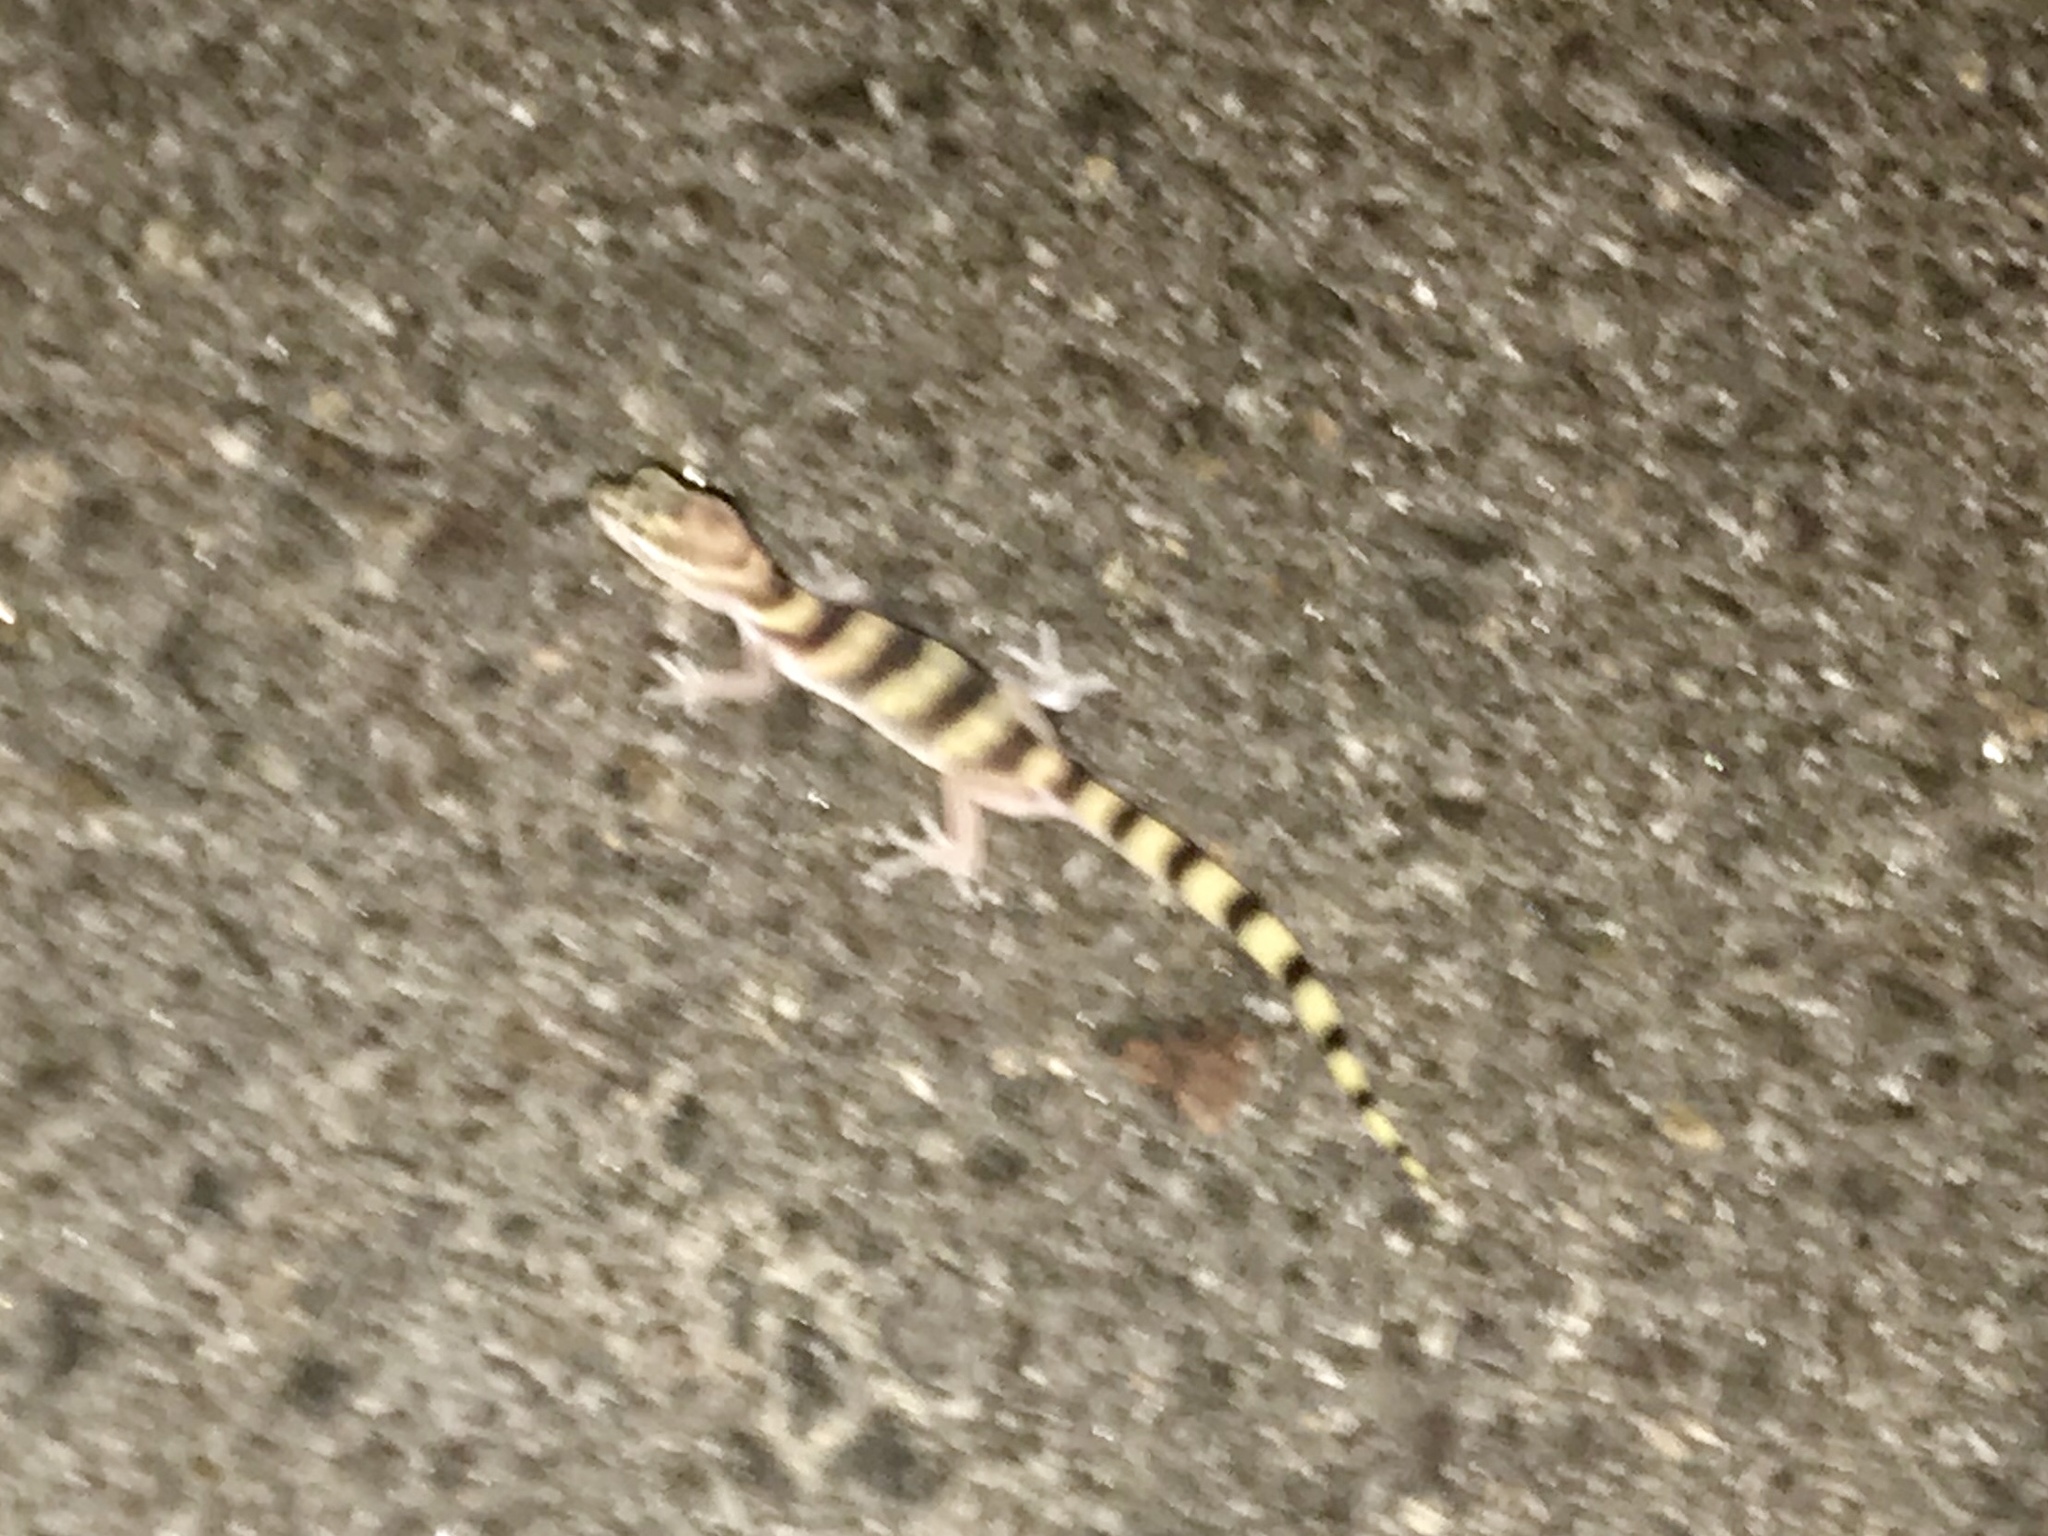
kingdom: Animalia
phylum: Chordata
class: Squamata
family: Eublepharidae
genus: Coleonyx
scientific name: Coleonyx variegatus
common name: Western banded gecko
